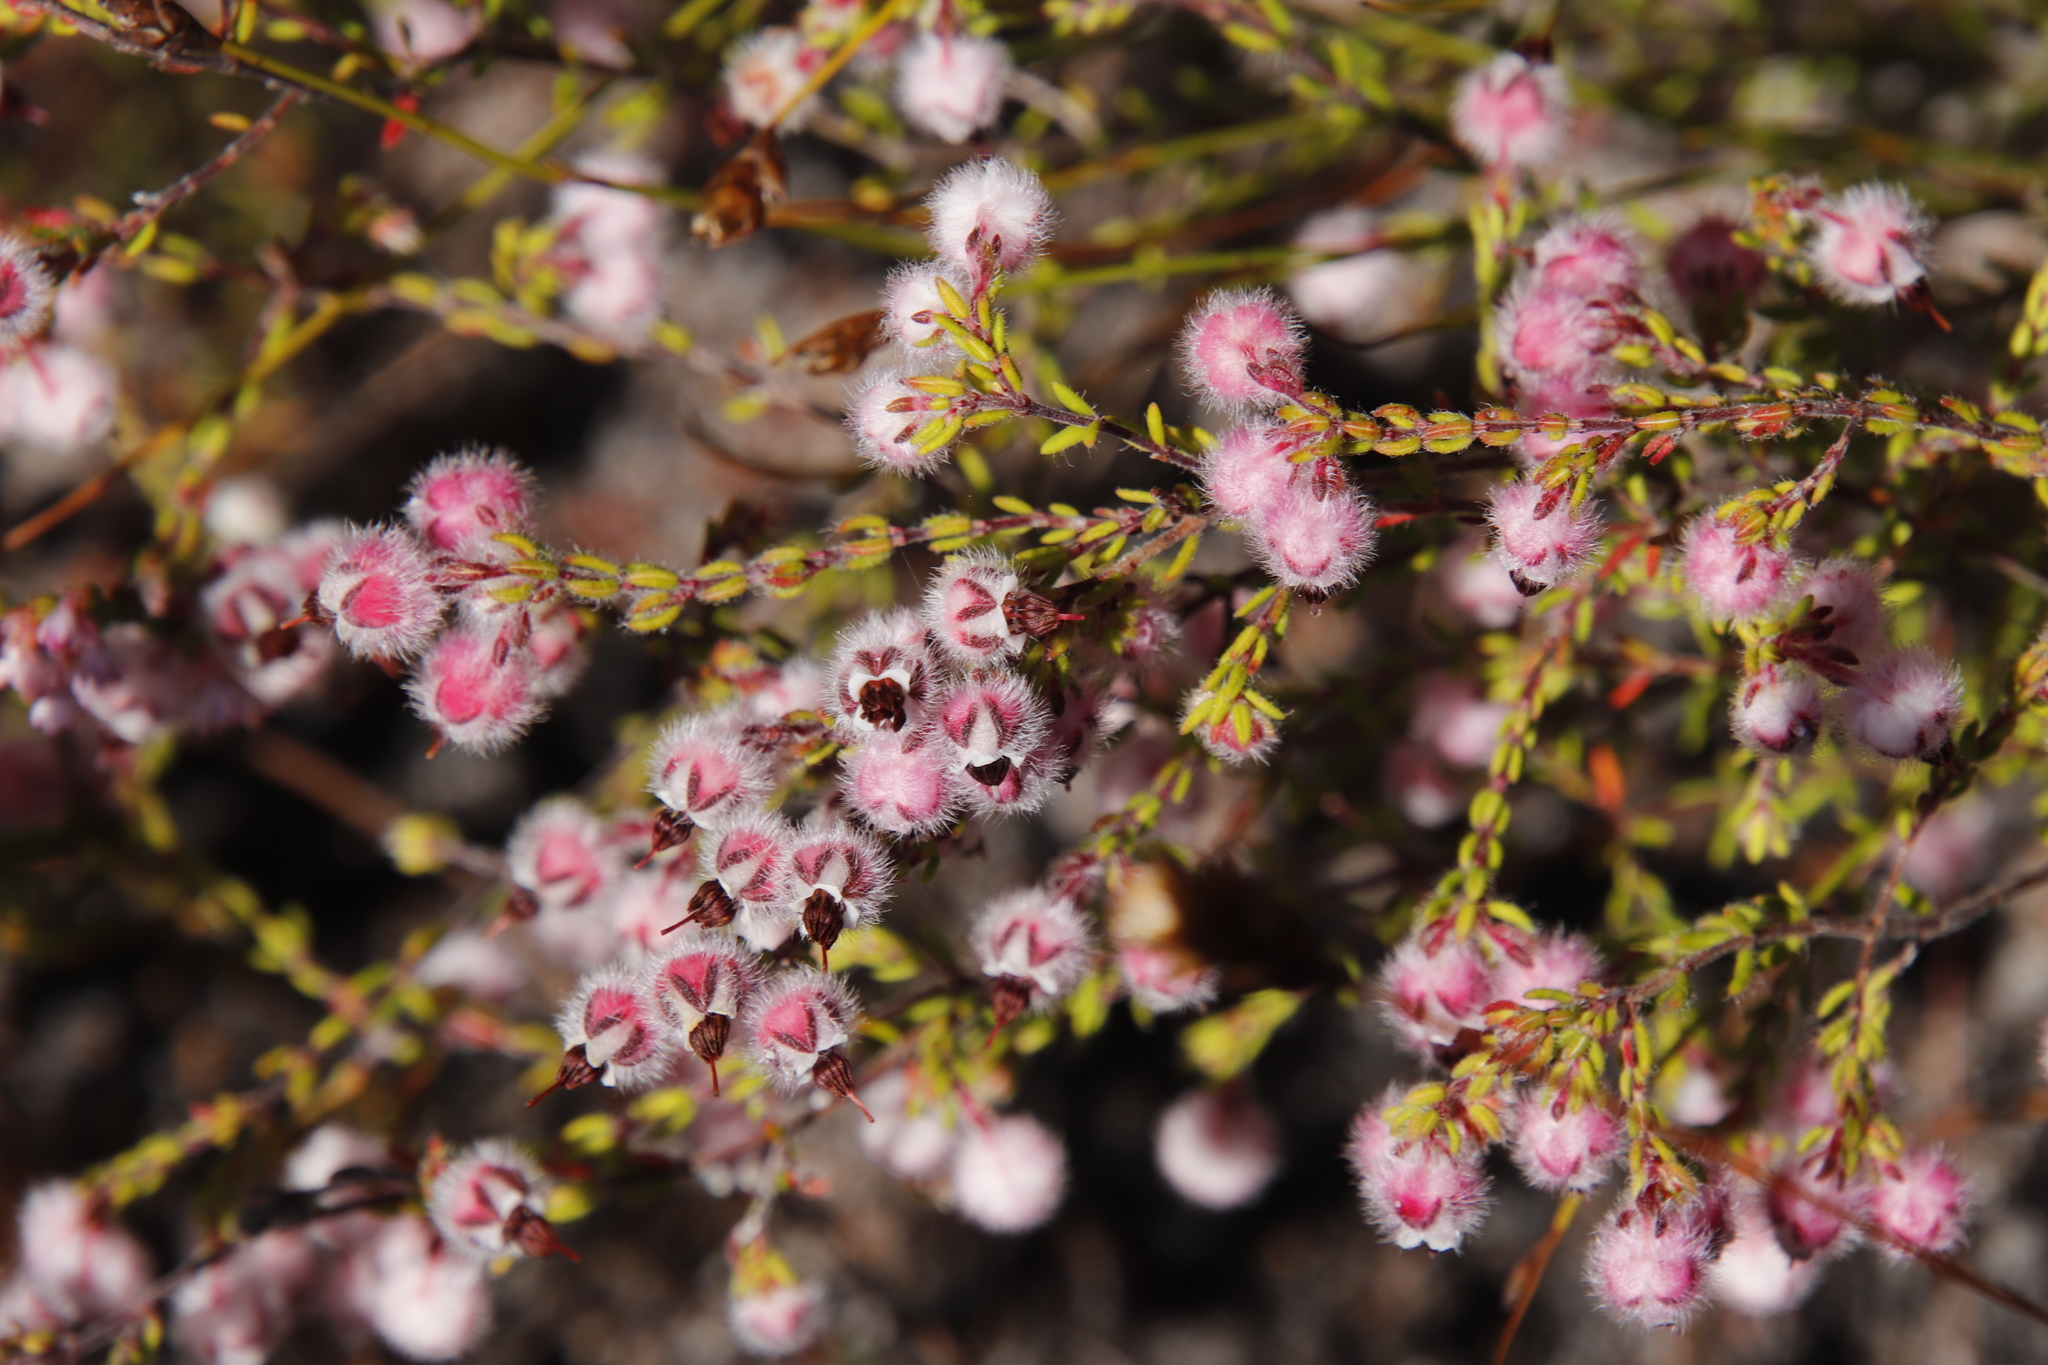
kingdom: Plantae
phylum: Tracheophyta
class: Magnoliopsida
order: Ericales
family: Ericaceae
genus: Erica
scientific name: Erica bruniades
